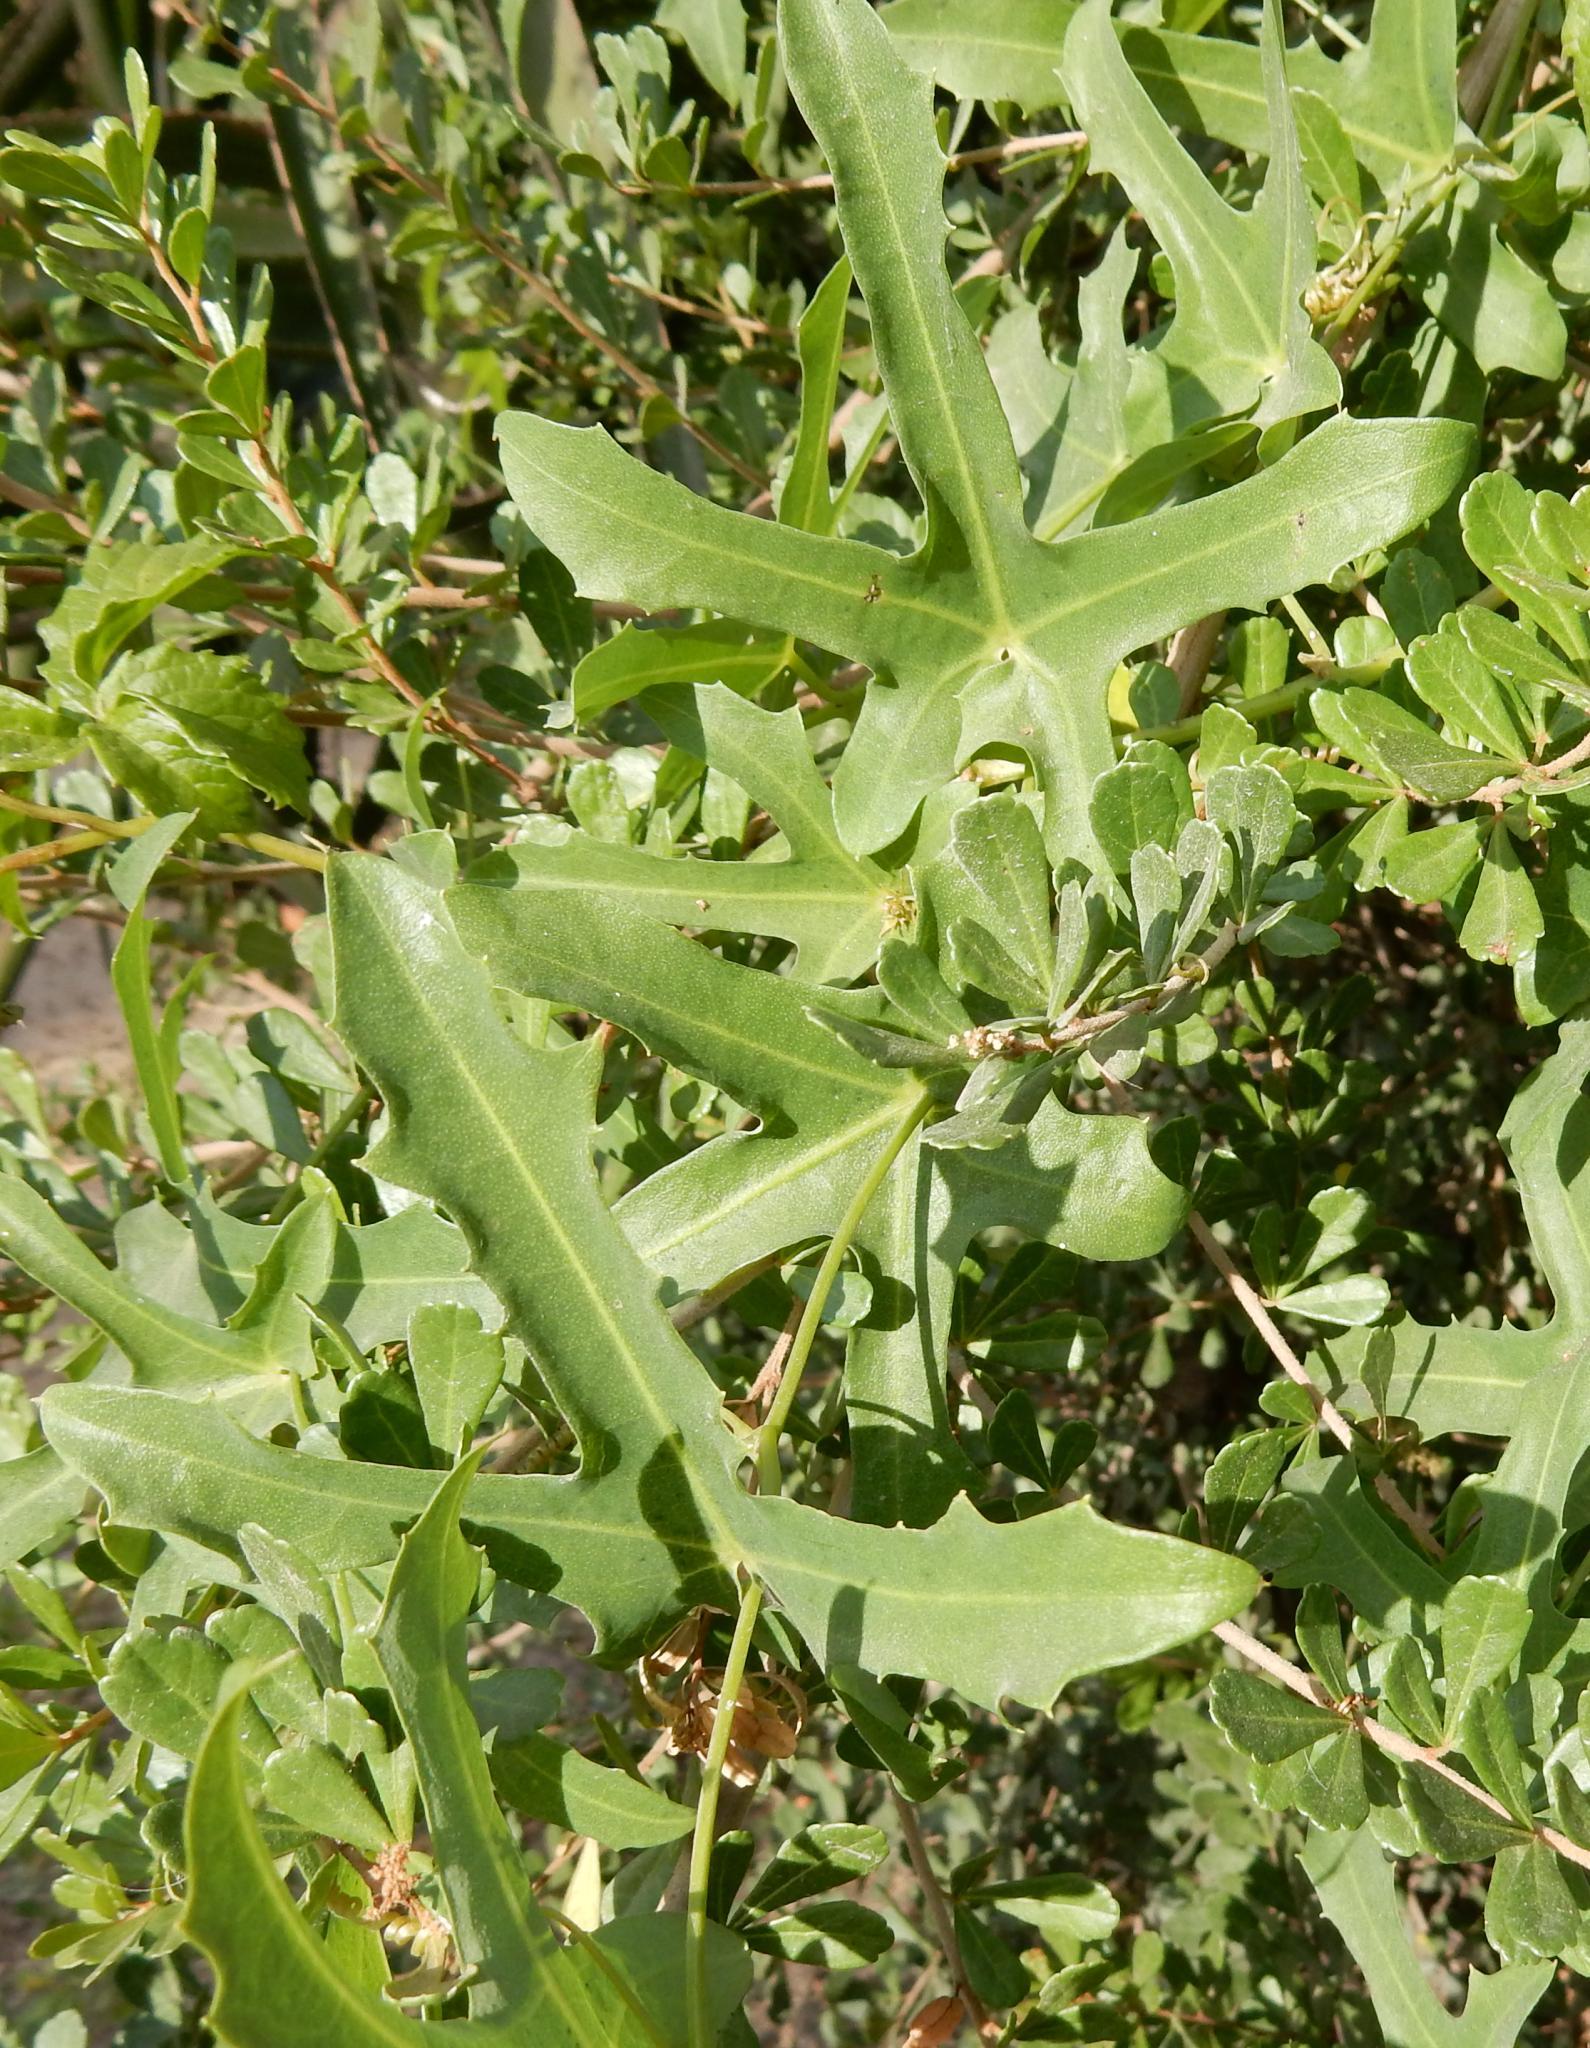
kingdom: Plantae
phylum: Tracheophyta
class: Magnoliopsida
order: Cucurbitales
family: Cucurbitaceae
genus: Coccinia
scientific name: Coccinia quinqueloba
